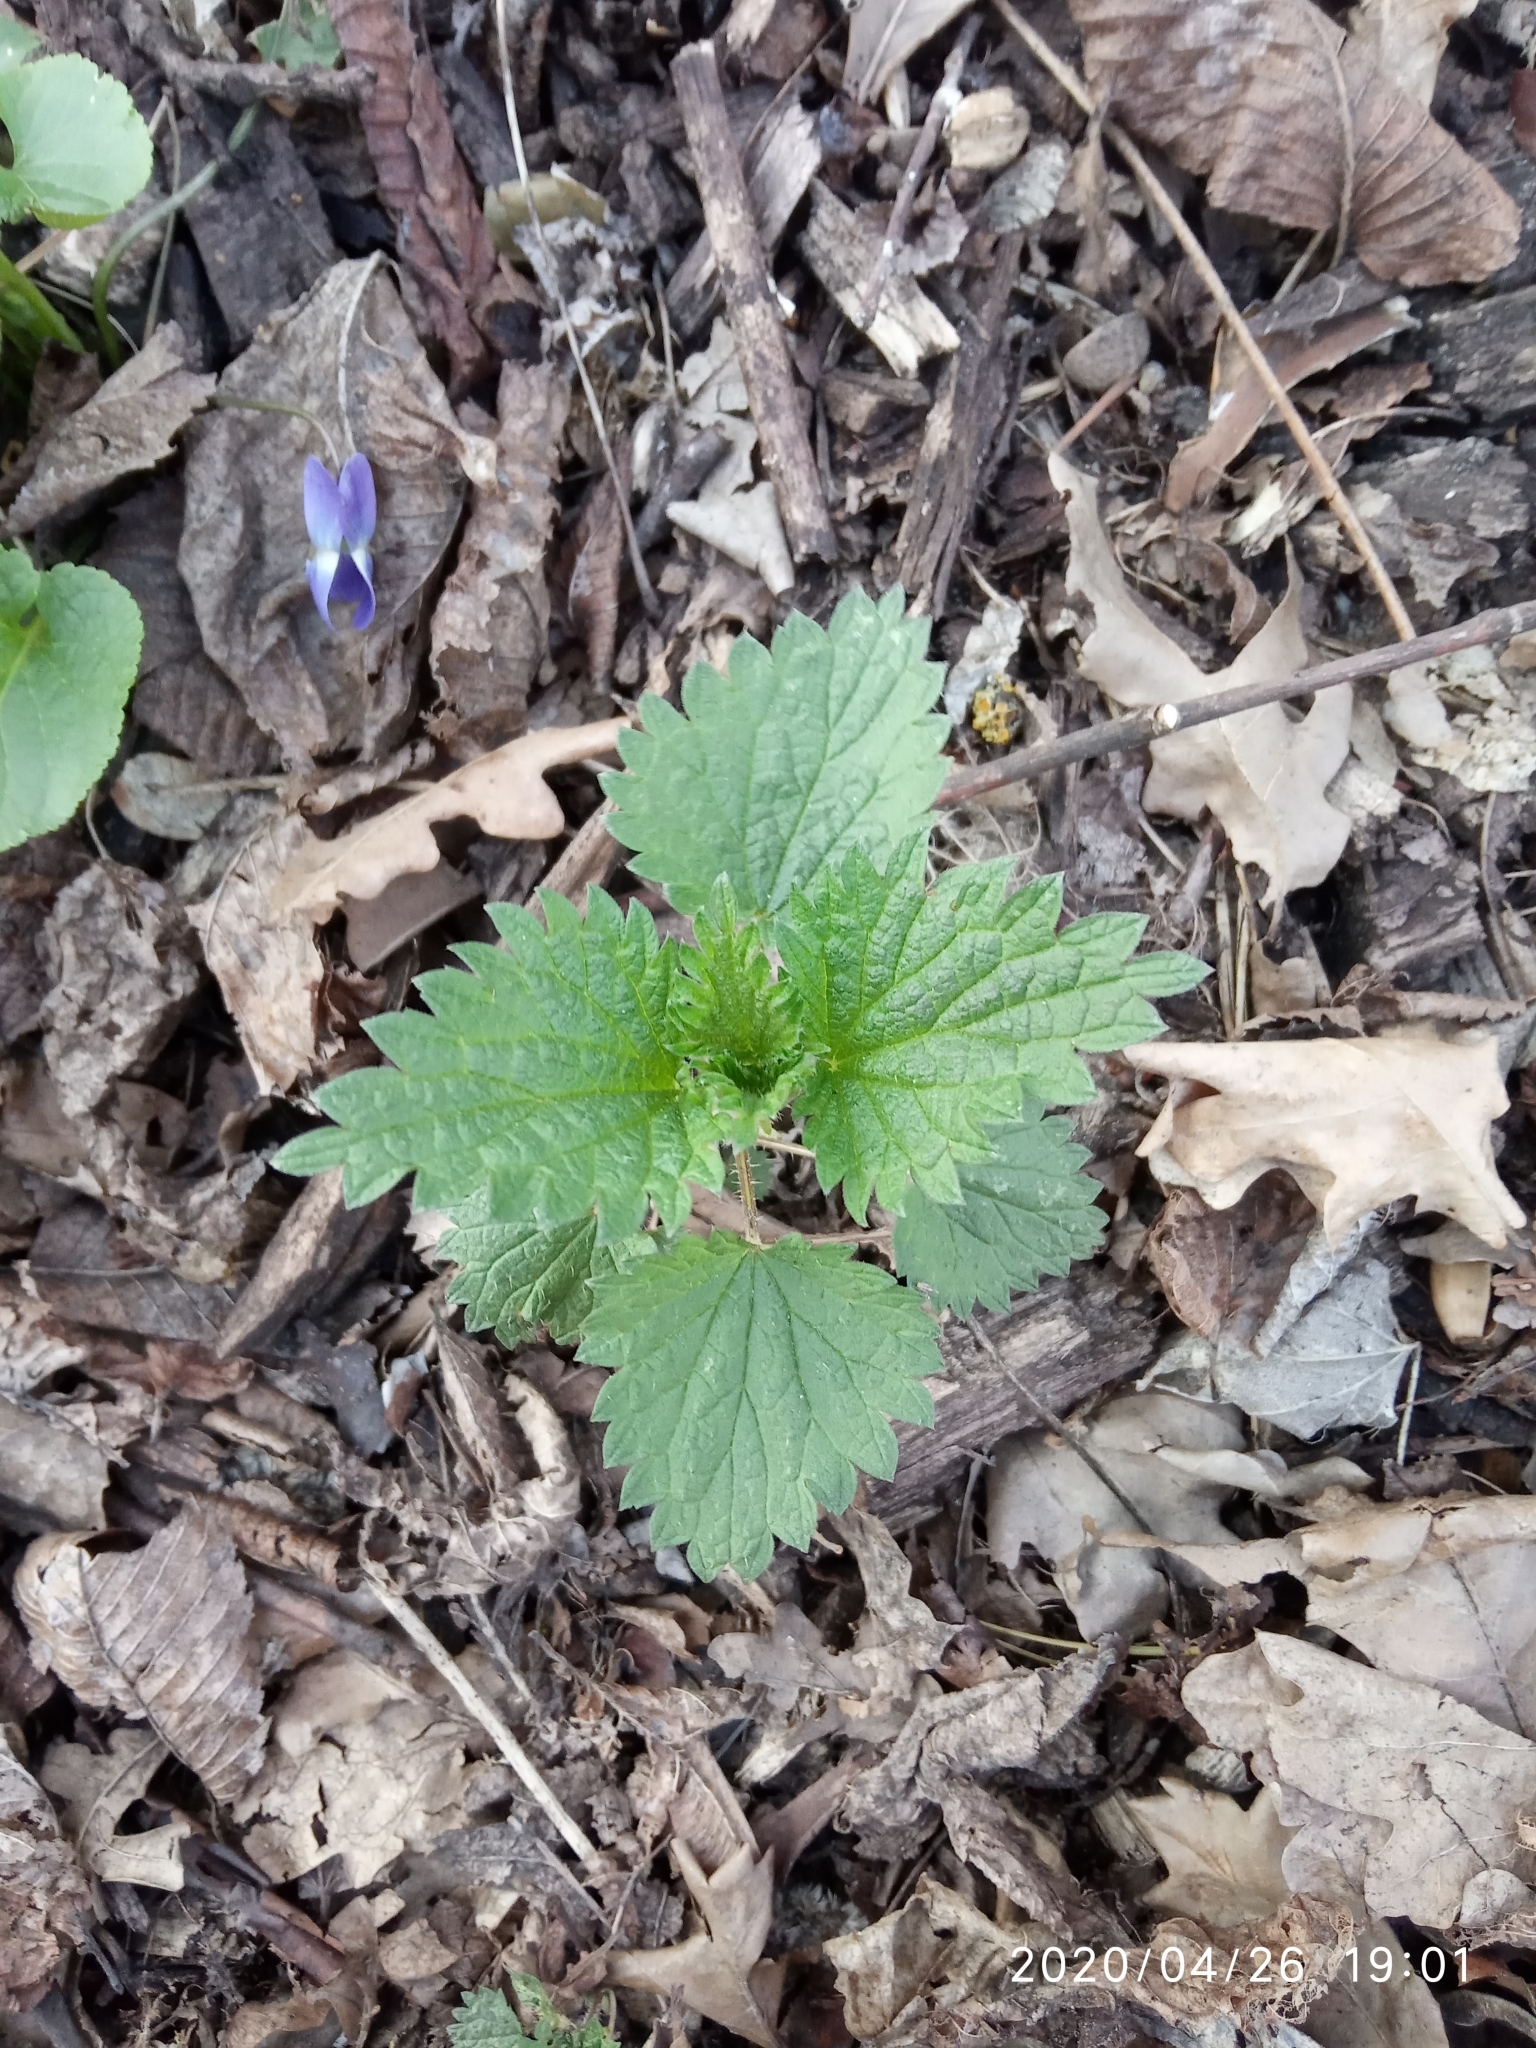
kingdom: Plantae
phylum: Tracheophyta
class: Magnoliopsida
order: Rosales
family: Urticaceae
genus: Urtica
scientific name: Urtica dioica
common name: Common nettle
